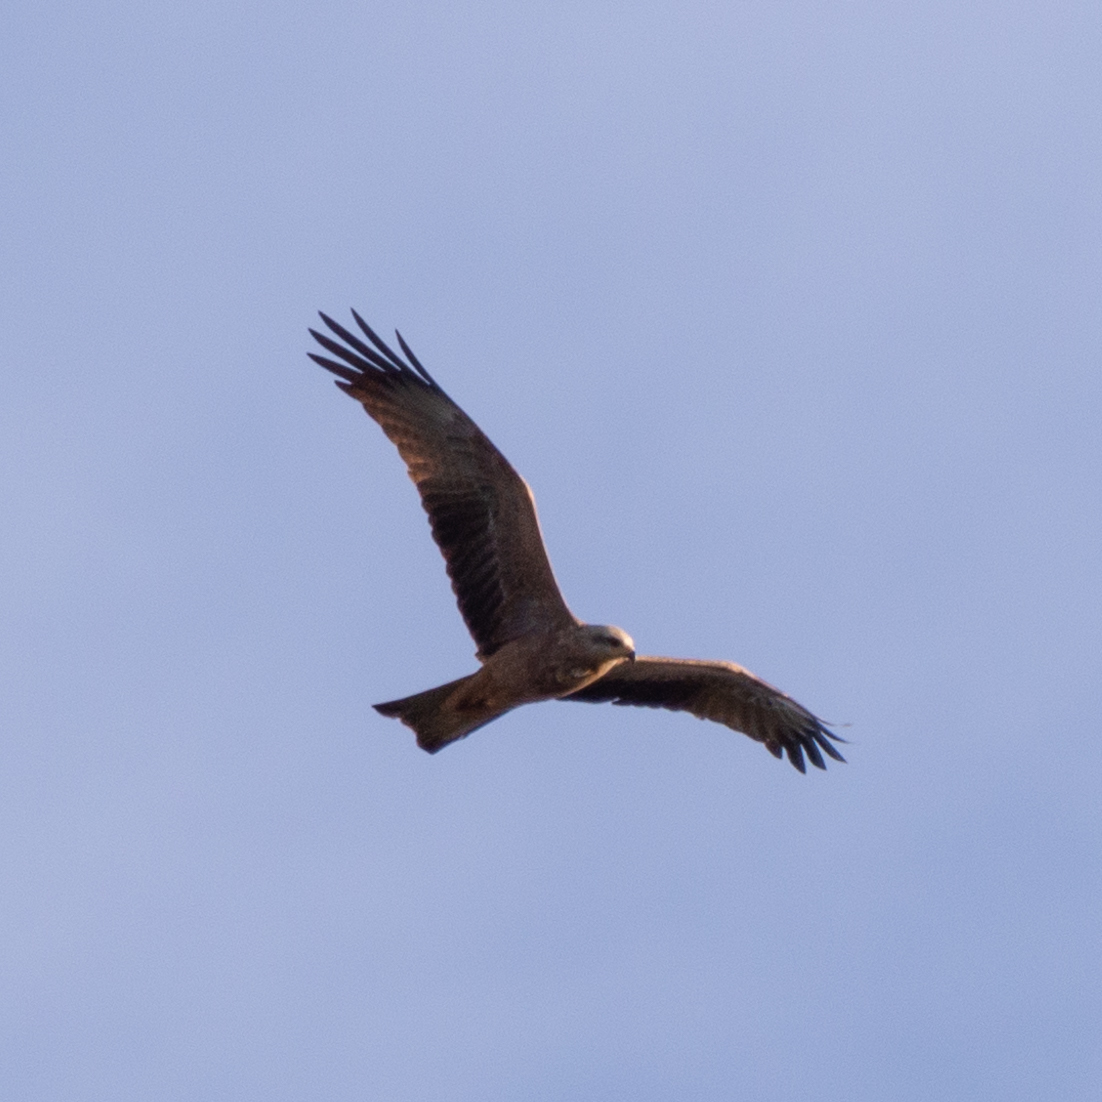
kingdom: Animalia
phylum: Chordata
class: Aves
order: Accipitriformes
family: Accipitridae
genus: Milvus
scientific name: Milvus migrans
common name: Black kite
